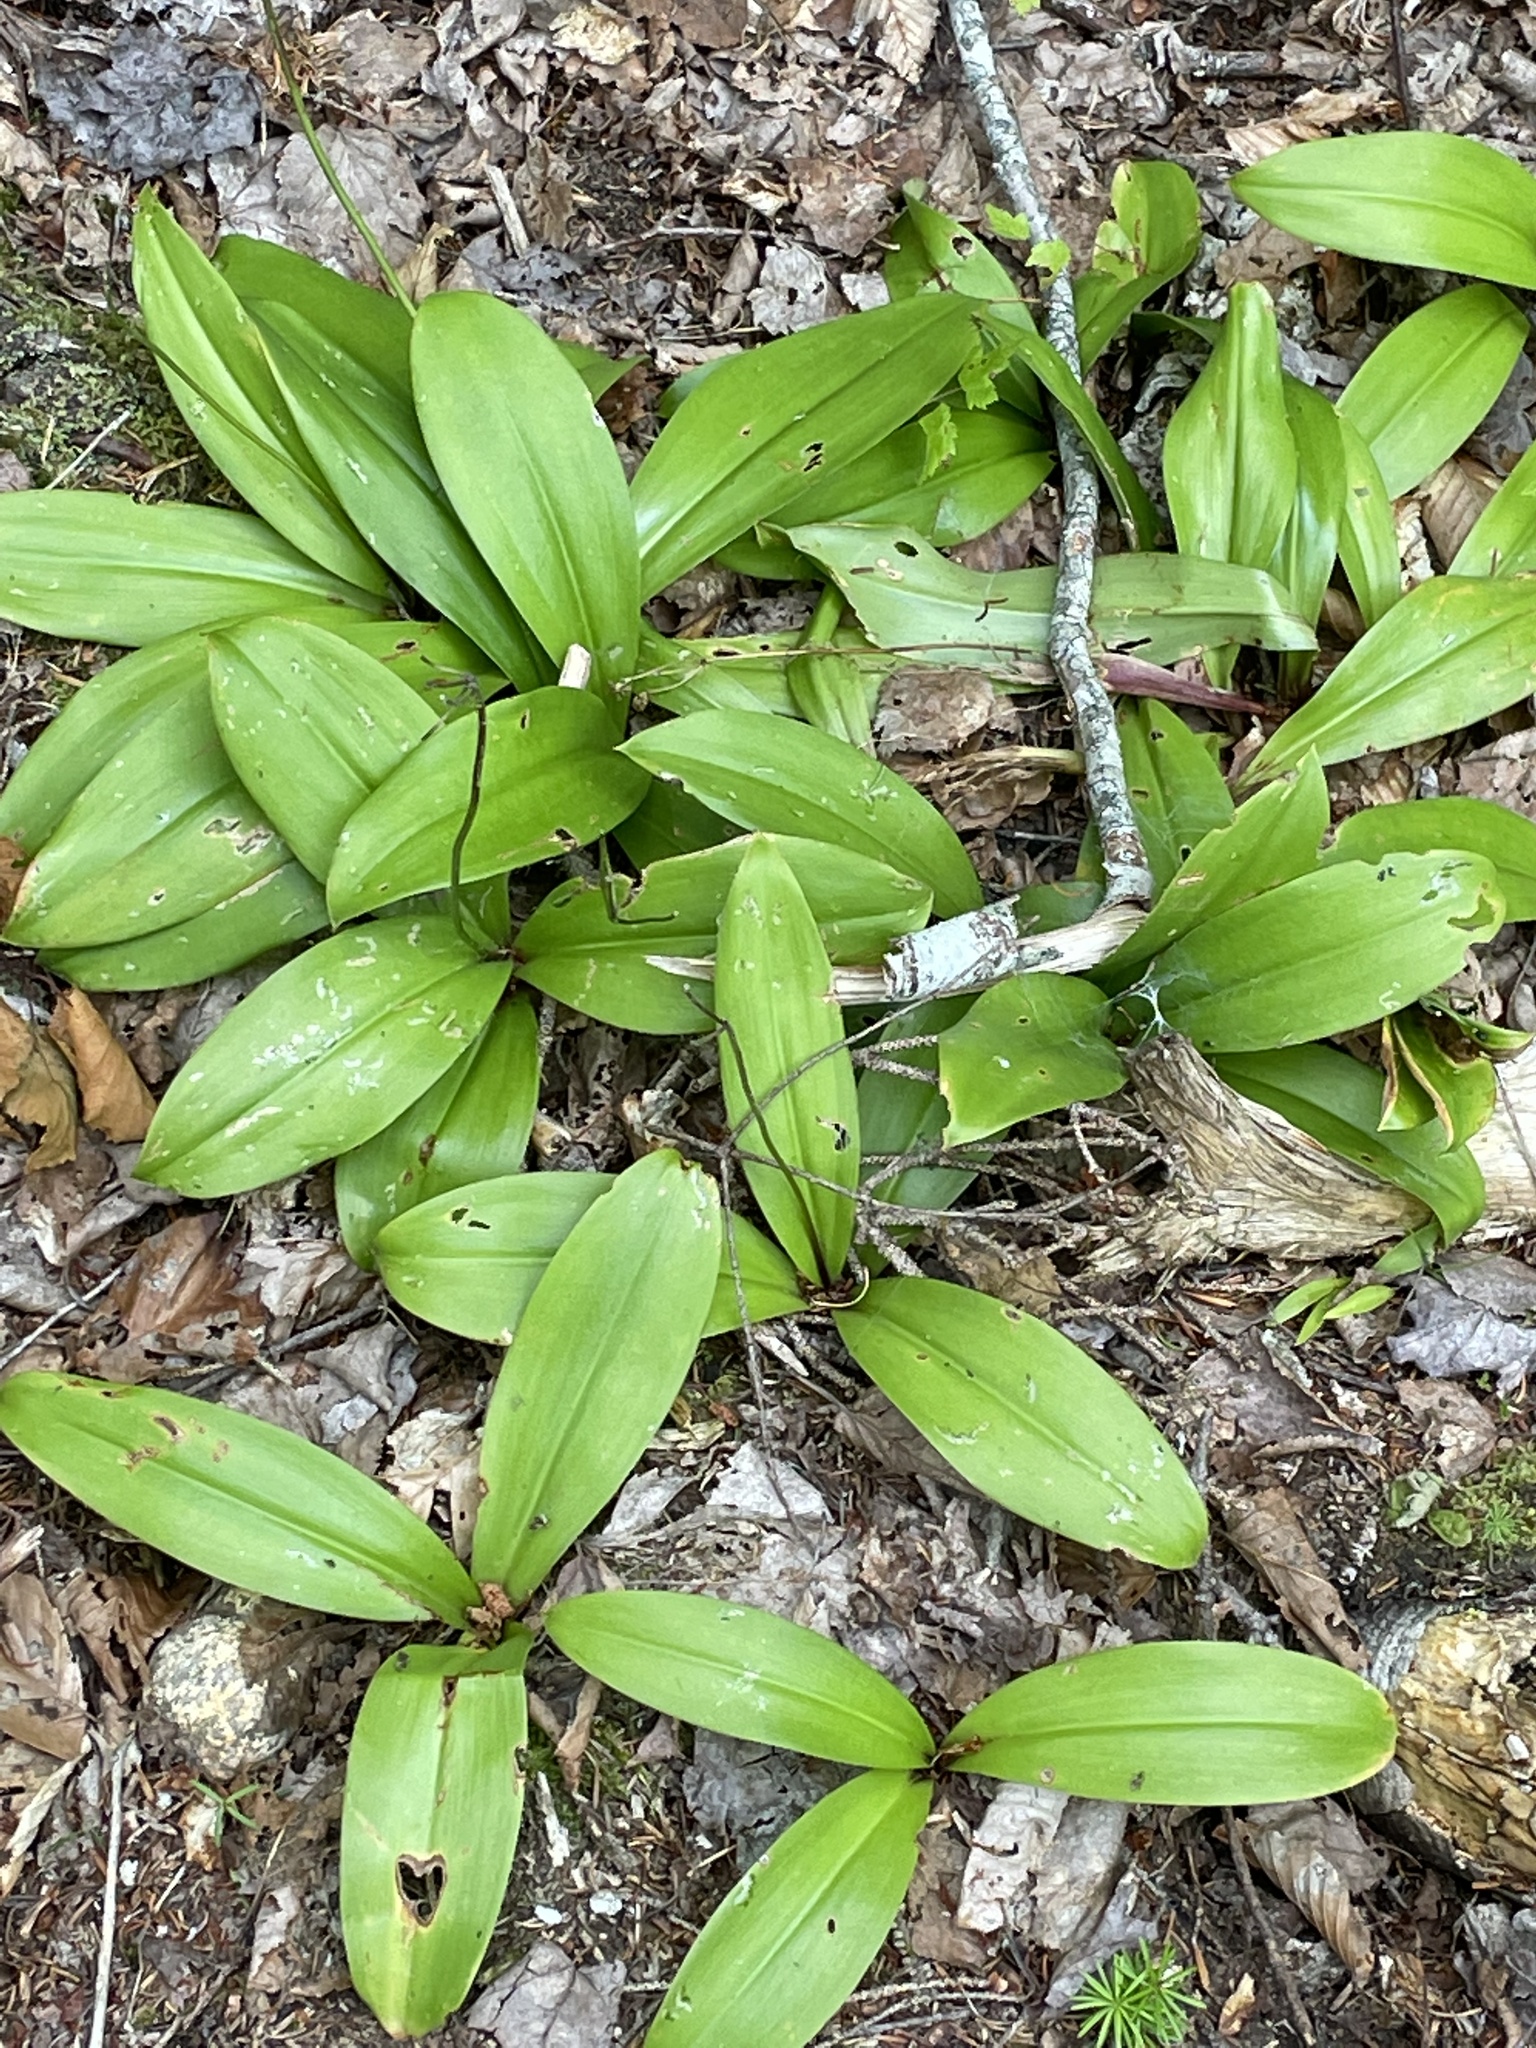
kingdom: Plantae
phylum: Tracheophyta
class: Liliopsida
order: Liliales
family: Liliaceae
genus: Clintonia
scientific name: Clintonia borealis
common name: Yellow clintonia
